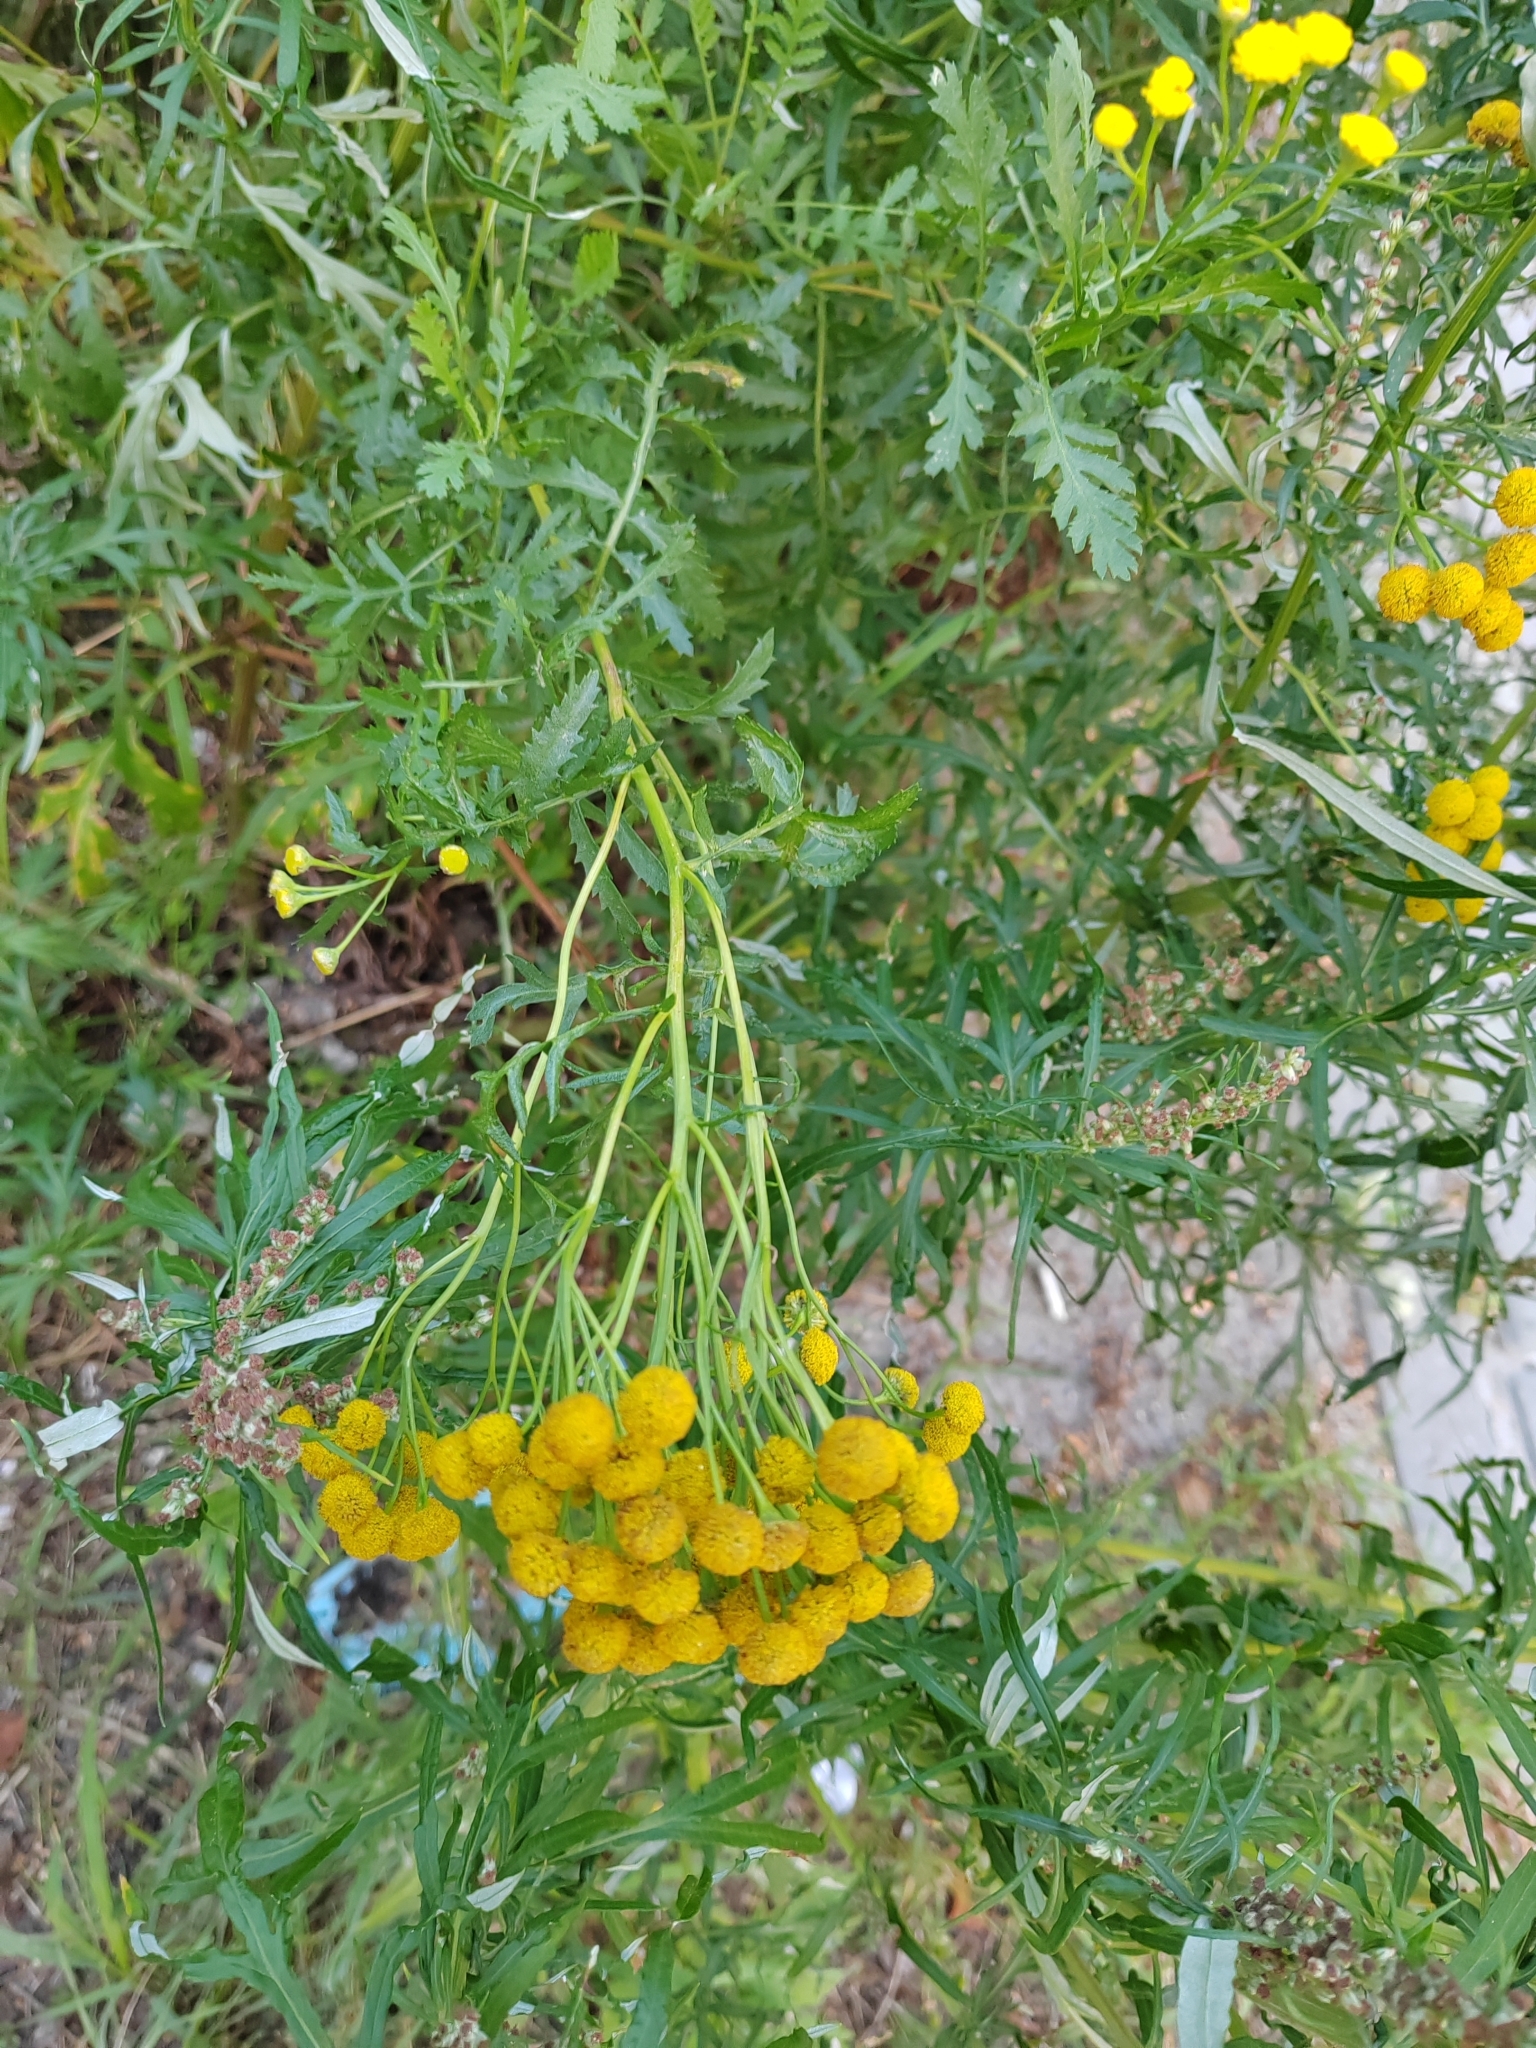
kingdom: Plantae
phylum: Tracheophyta
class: Magnoliopsida
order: Asterales
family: Asteraceae
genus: Tanacetum
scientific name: Tanacetum vulgare
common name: Common tansy
